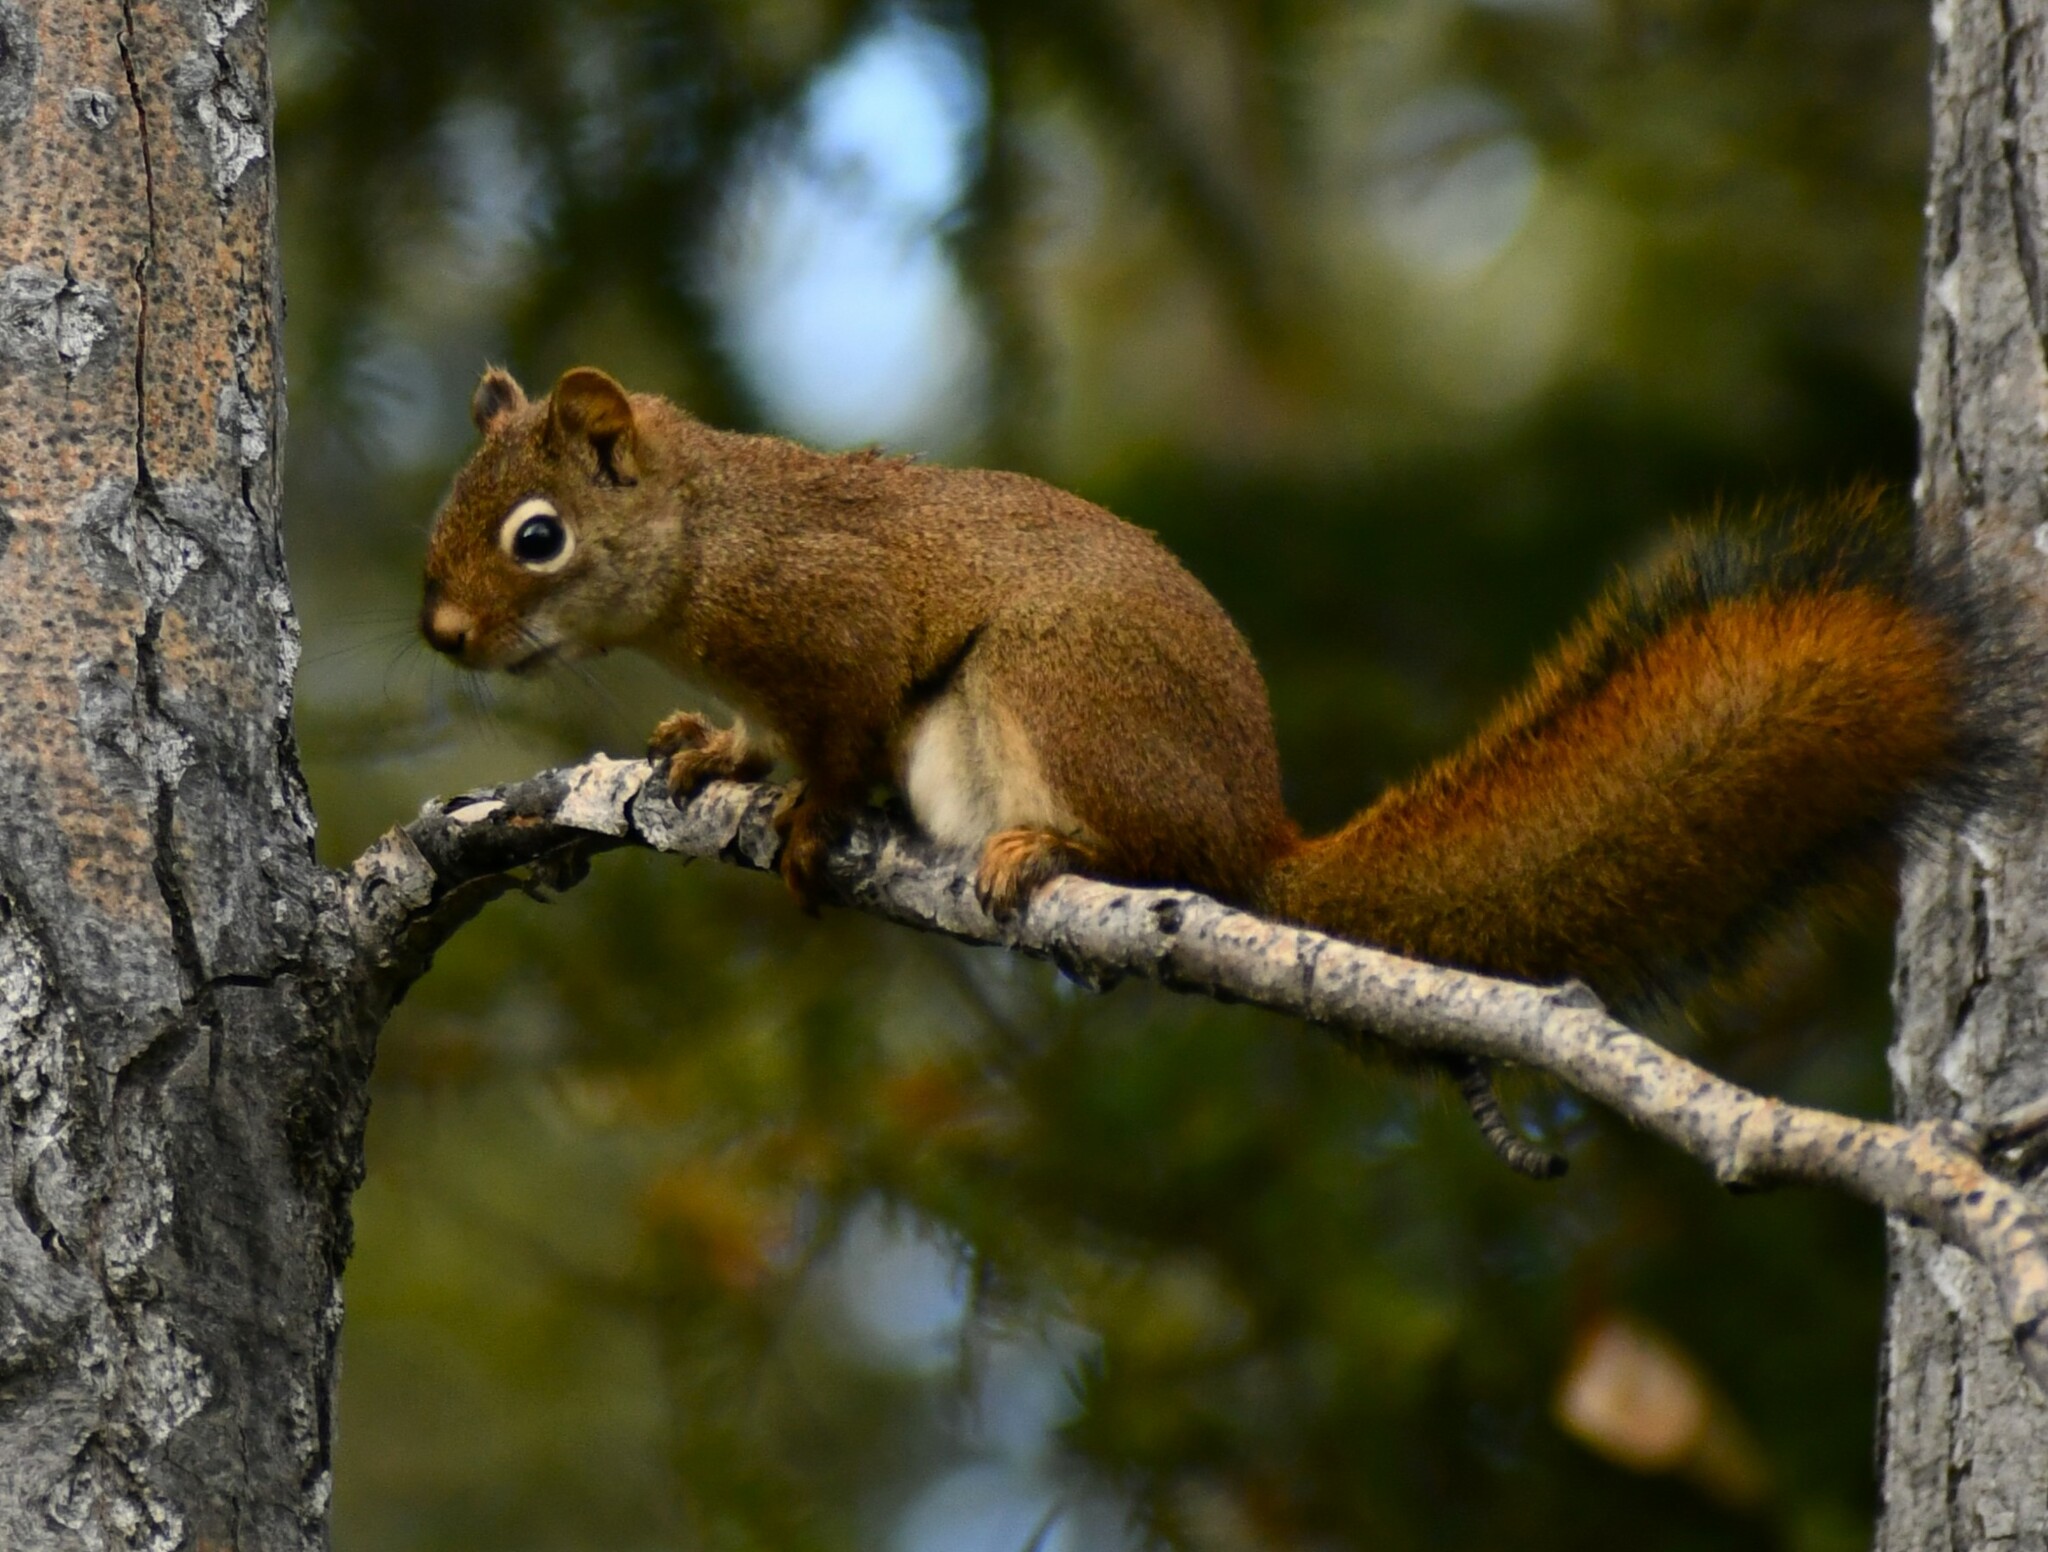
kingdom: Animalia
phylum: Chordata
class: Mammalia
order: Rodentia
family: Sciuridae
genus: Tamiasciurus
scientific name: Tamiasciurus hudsonicus
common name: Red squirrel
